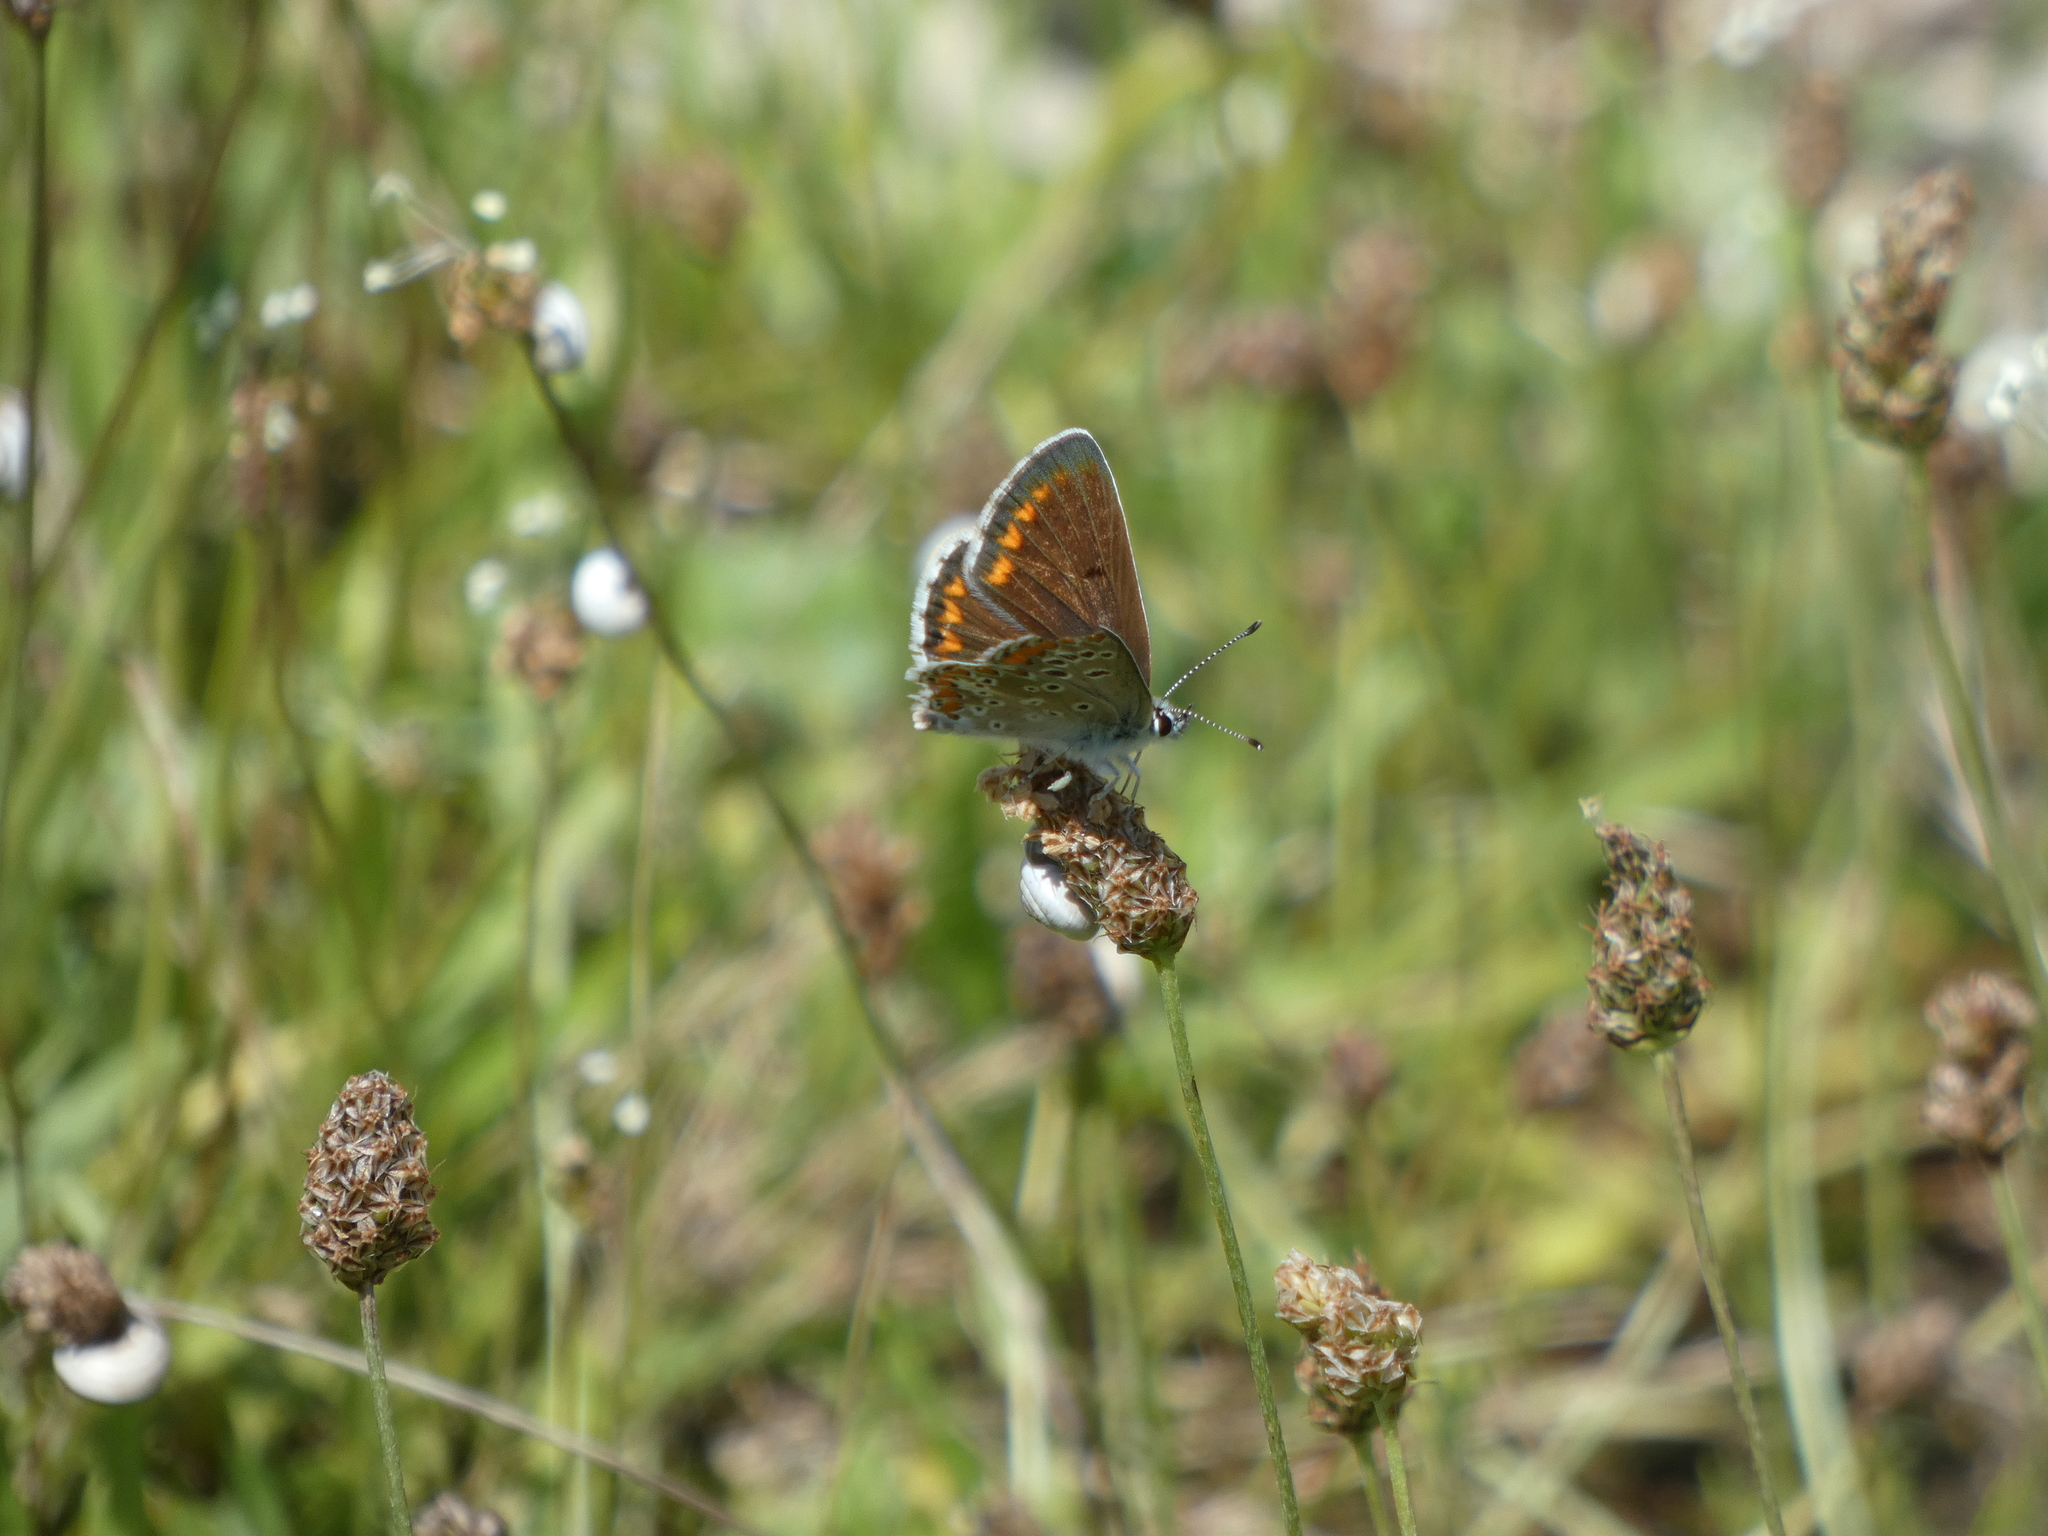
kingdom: Animalia
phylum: Arthropoda
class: Insecta
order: Lepidoptera
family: Lycaenidae
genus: Aricia
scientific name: Aricia agestis
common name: Brown argus
